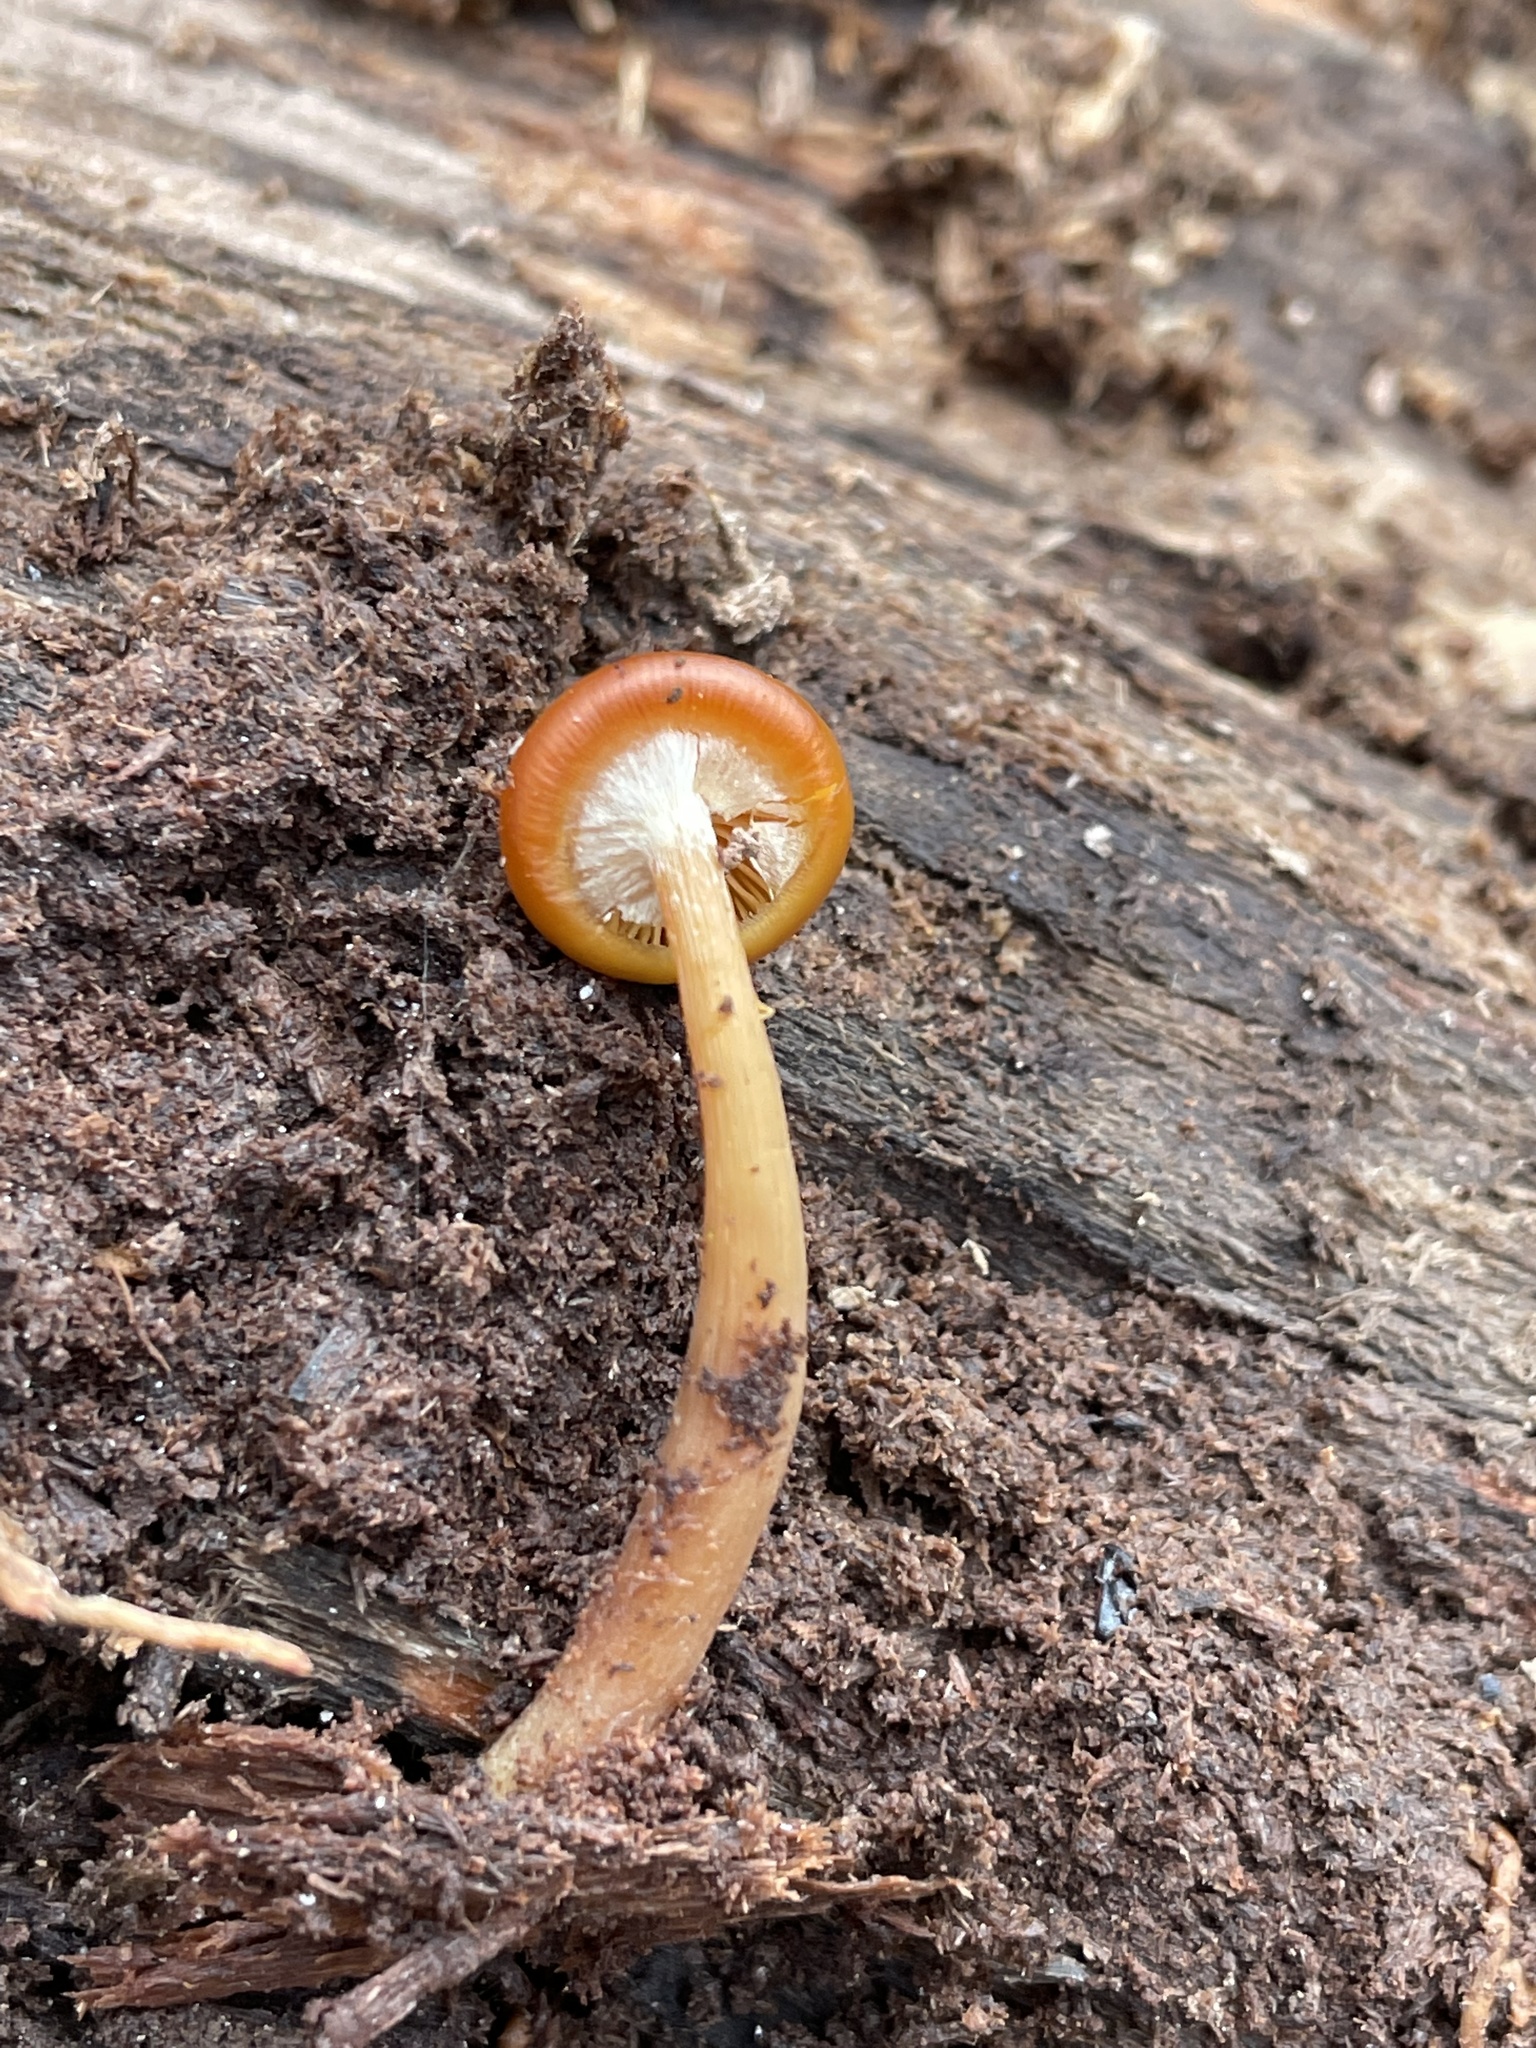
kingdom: Fungi
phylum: Basidiomycota
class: Agaricomycetes
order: Agaricales
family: Hymenogastraceae
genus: Galerina
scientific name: Galerina marginata
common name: Funeral bell
